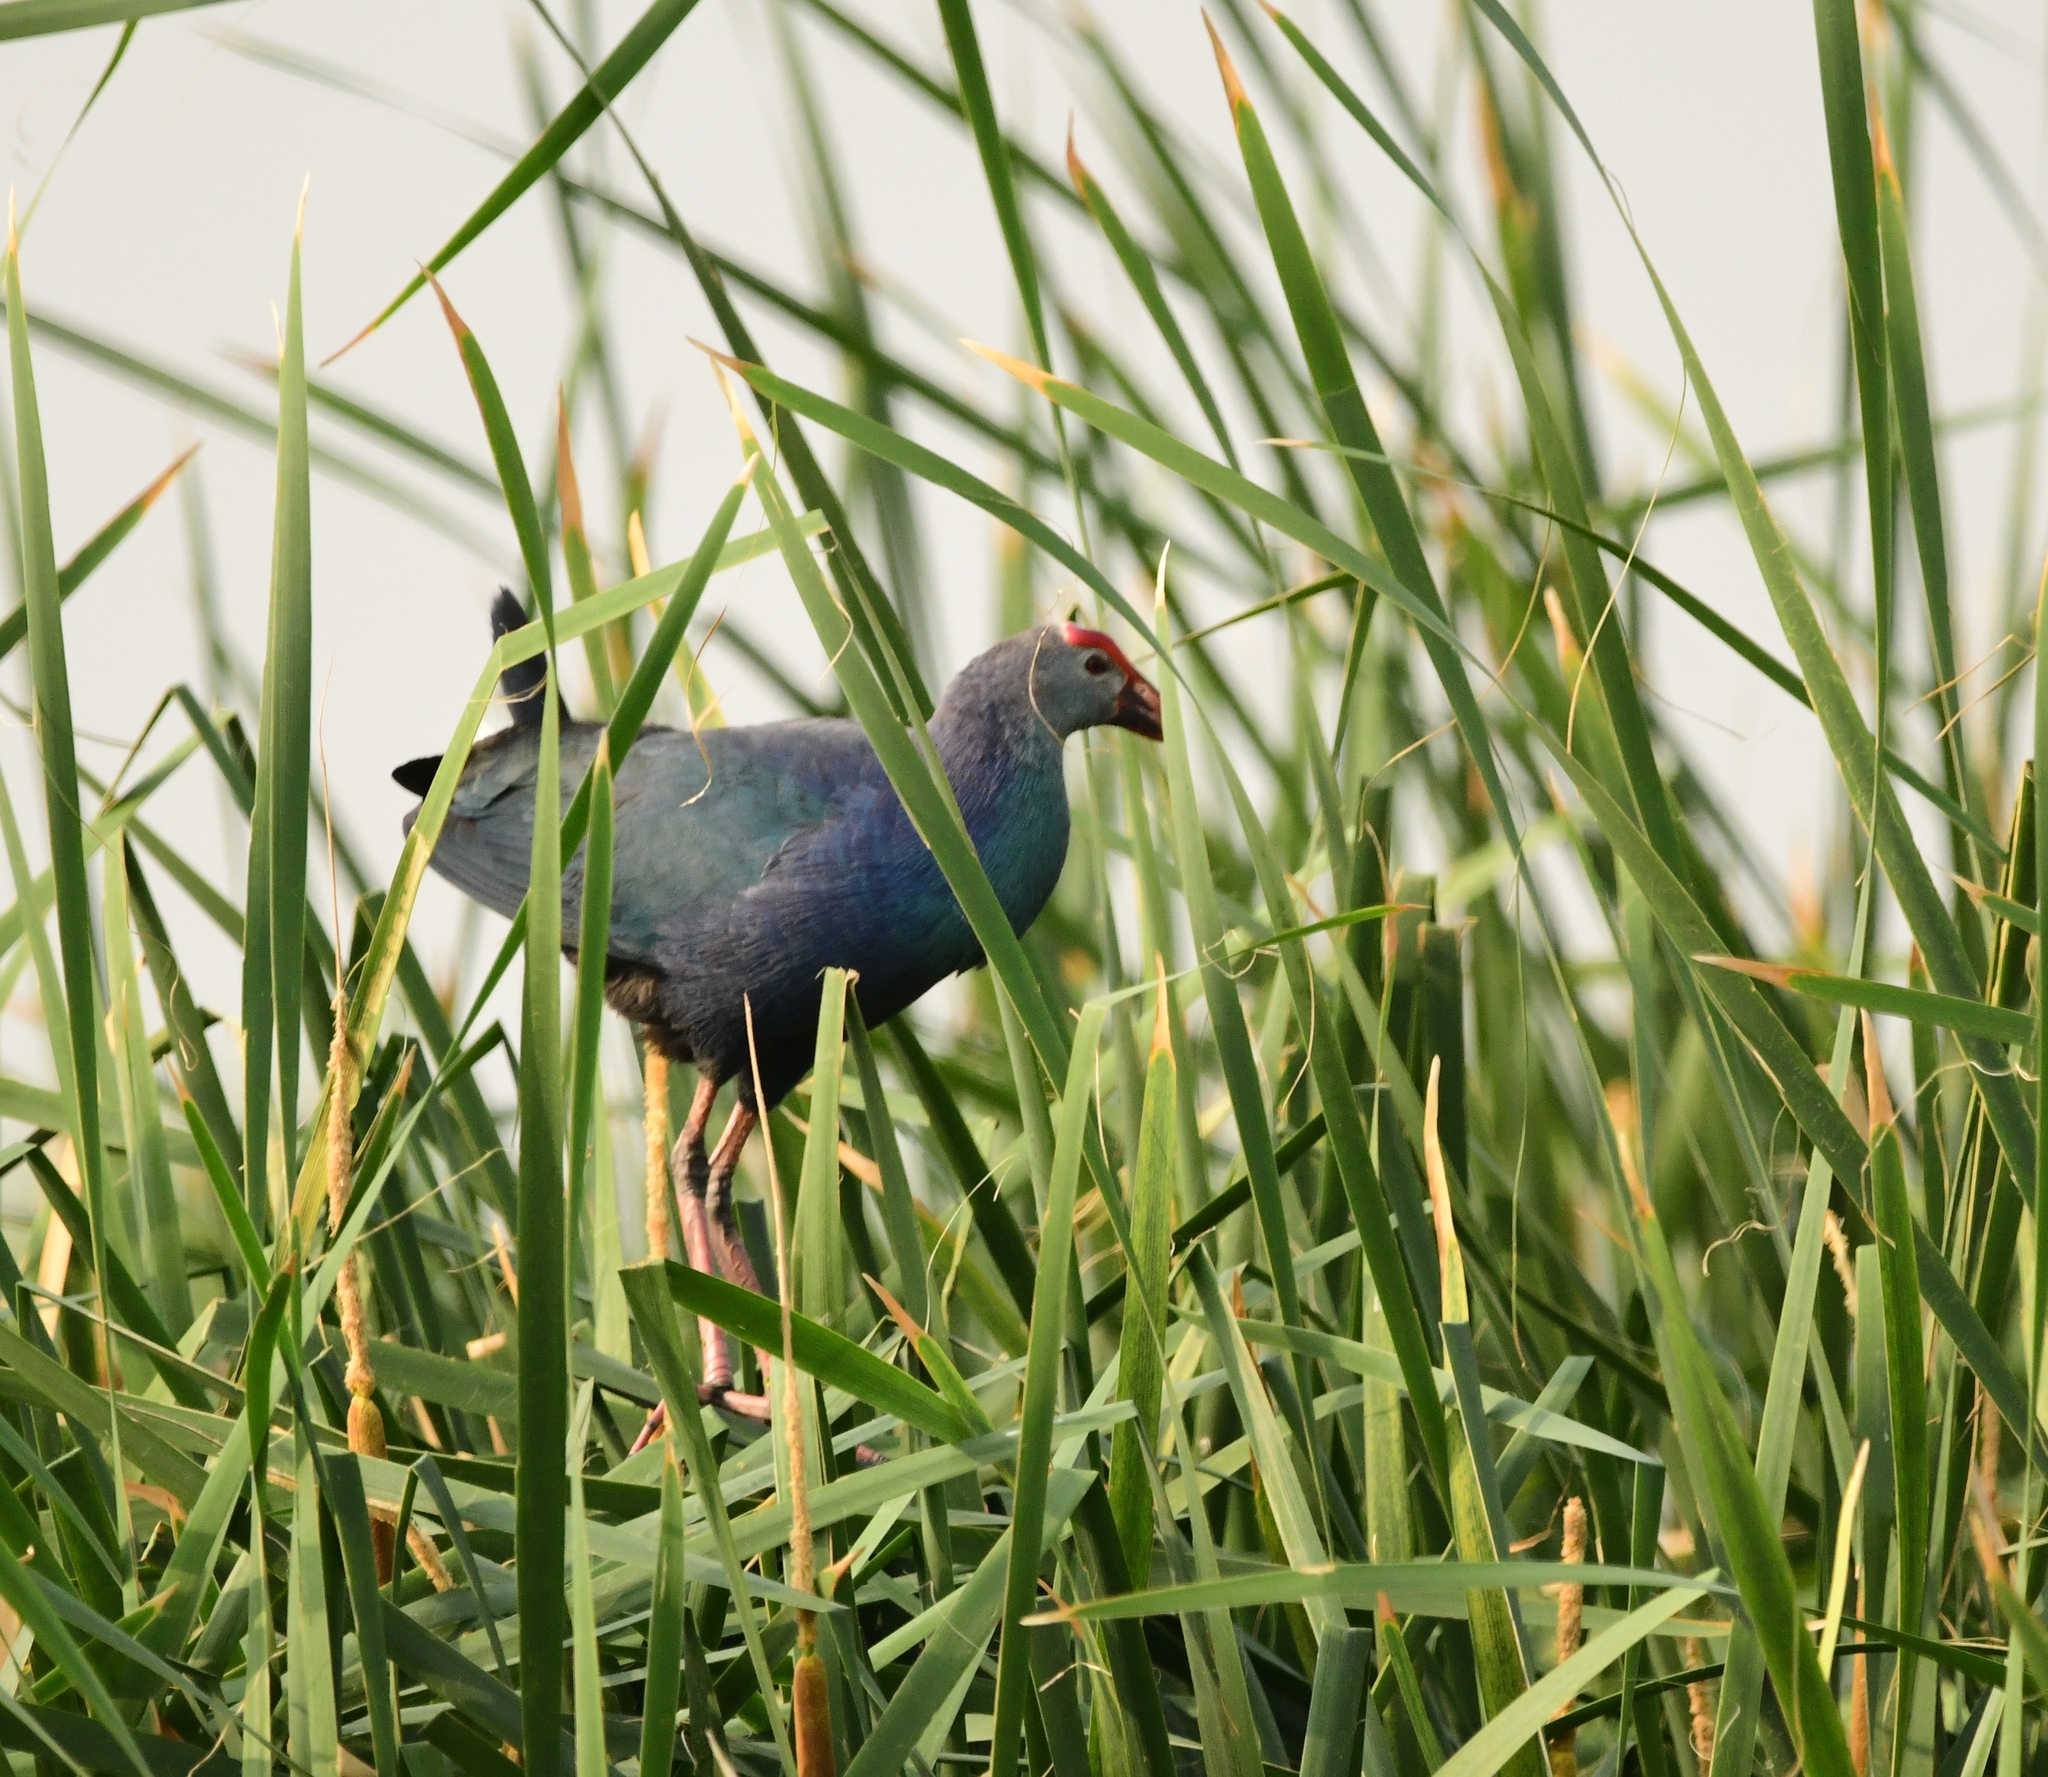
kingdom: Animalia
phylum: Chordata
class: Aves
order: Gruiformes
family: Rallidae
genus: Porphyrio
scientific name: Porphyrio porphyrio
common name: Purple swamphen
